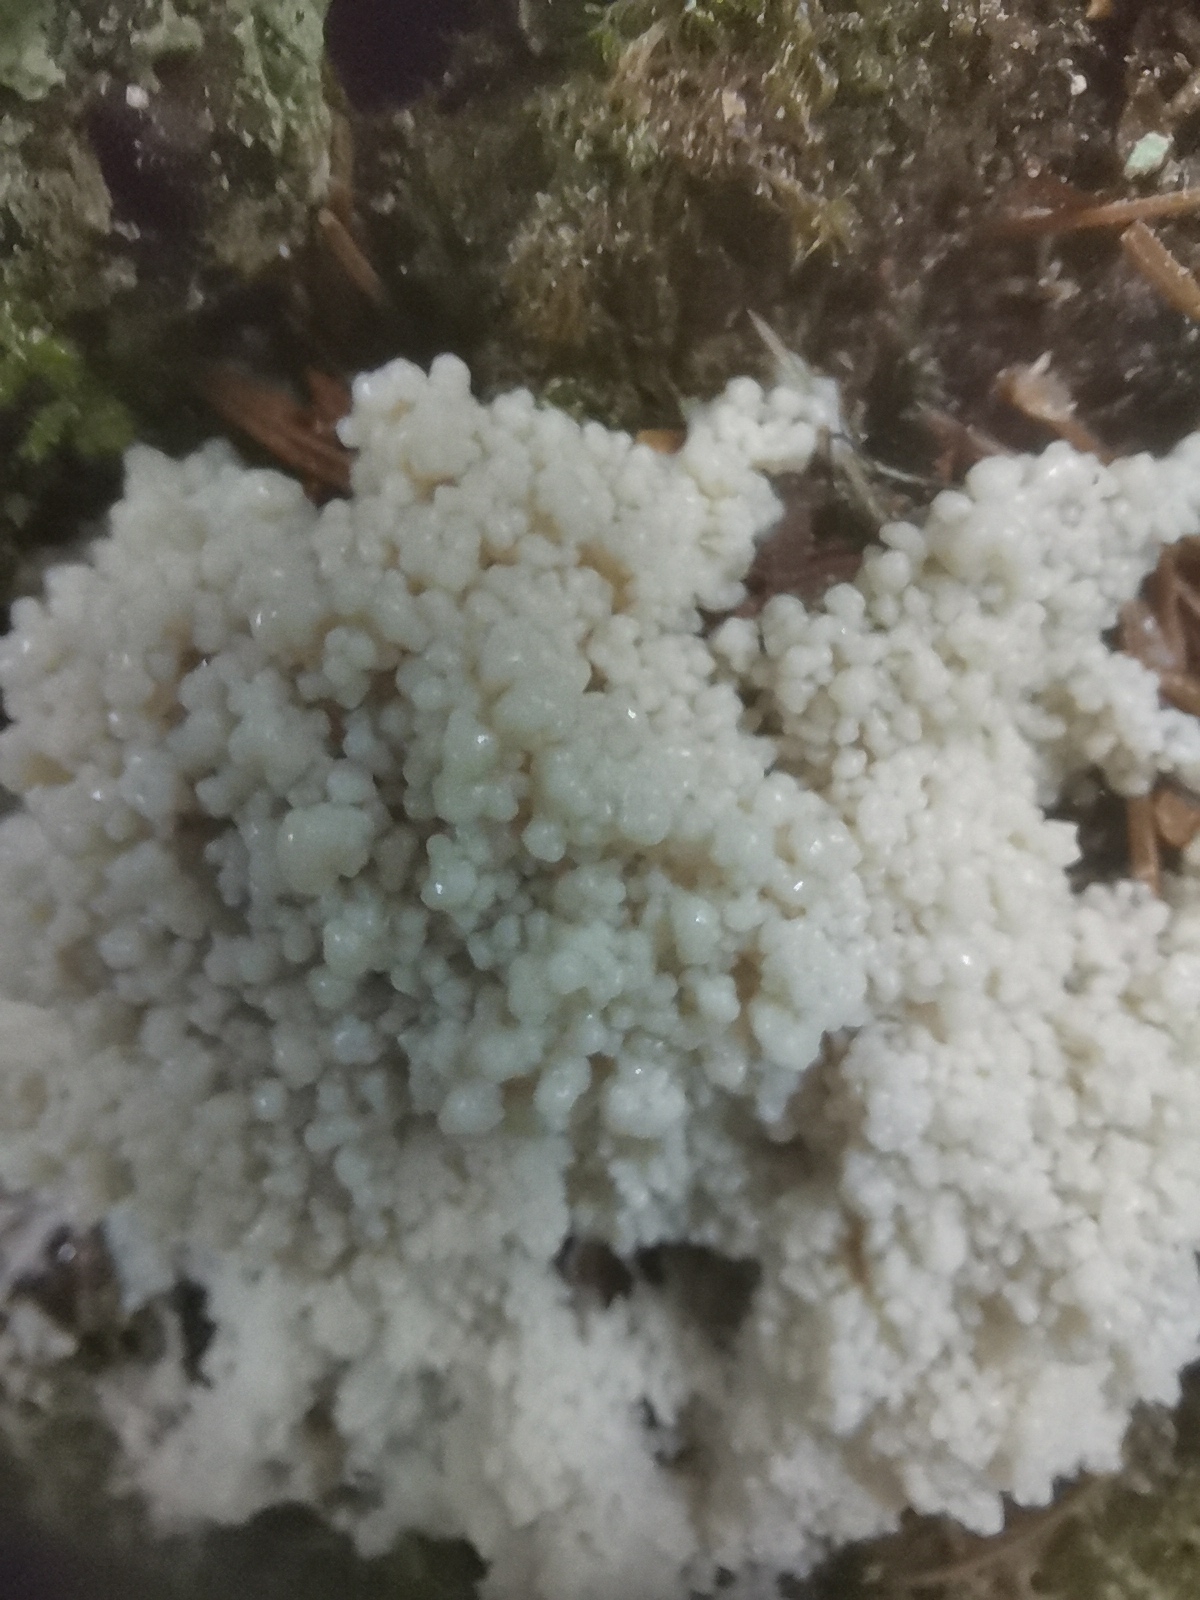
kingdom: Protozoa
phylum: Mycetozoa
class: Myxomycetes
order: Physarales
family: Physaraceae
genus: Didymium
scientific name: Didymium
